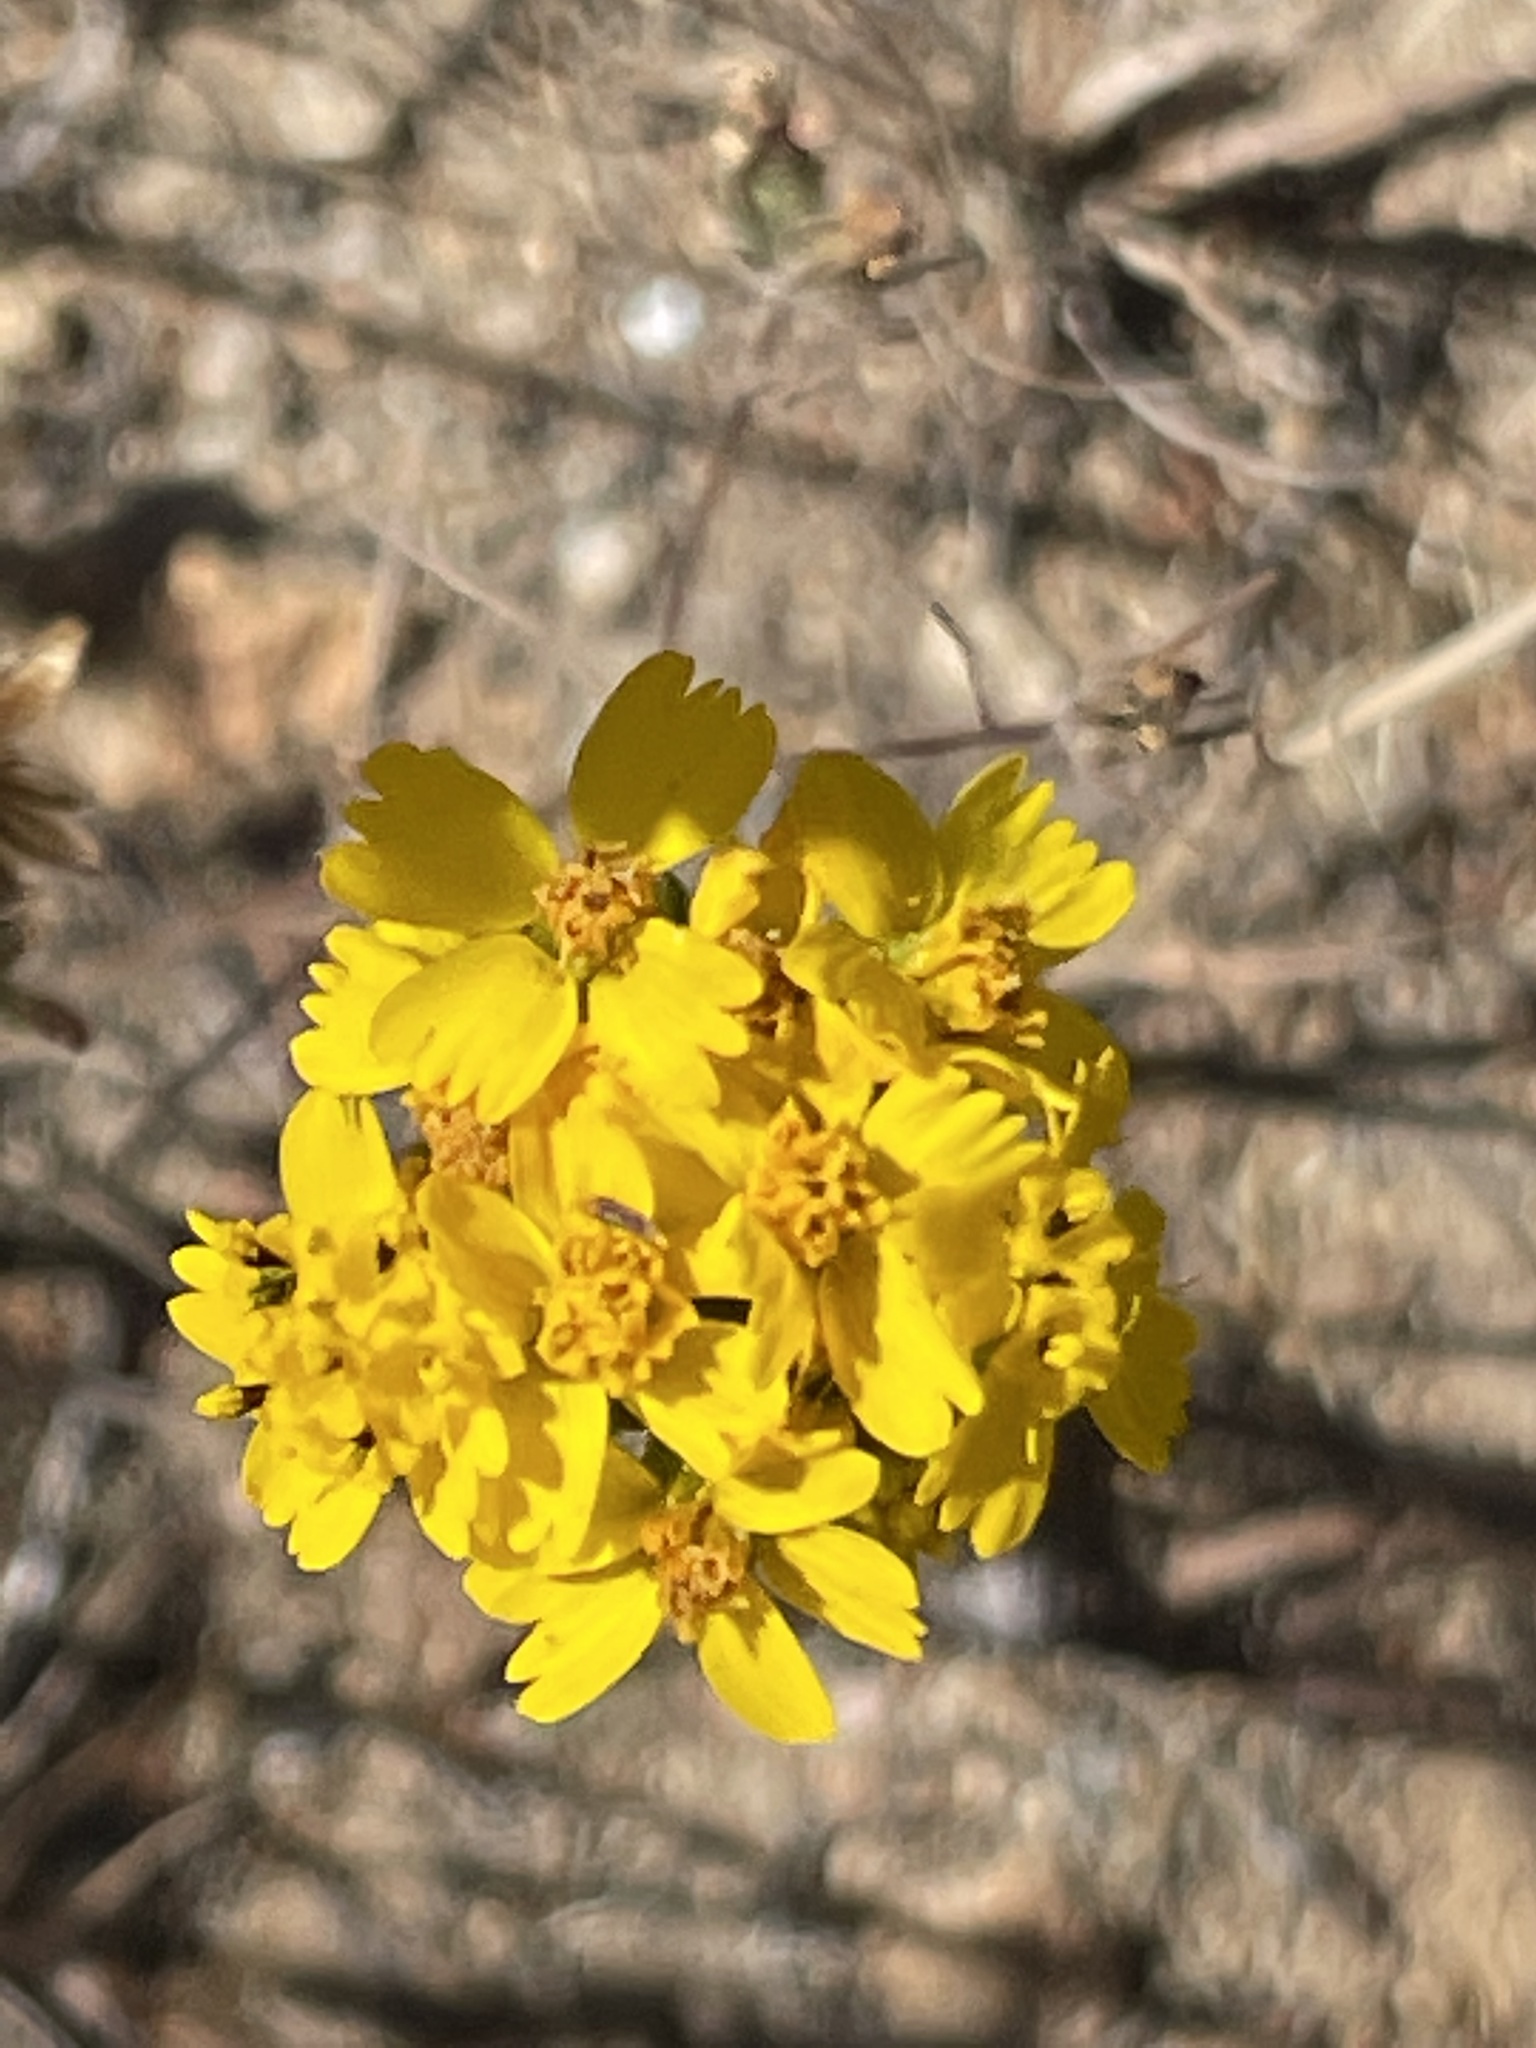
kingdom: Plantae
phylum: Tracheophyta
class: Magnoliopsida
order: Asterales
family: Asteraceae
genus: Deinandra
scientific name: Deinandra fasciculata
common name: Clustered tarweed
